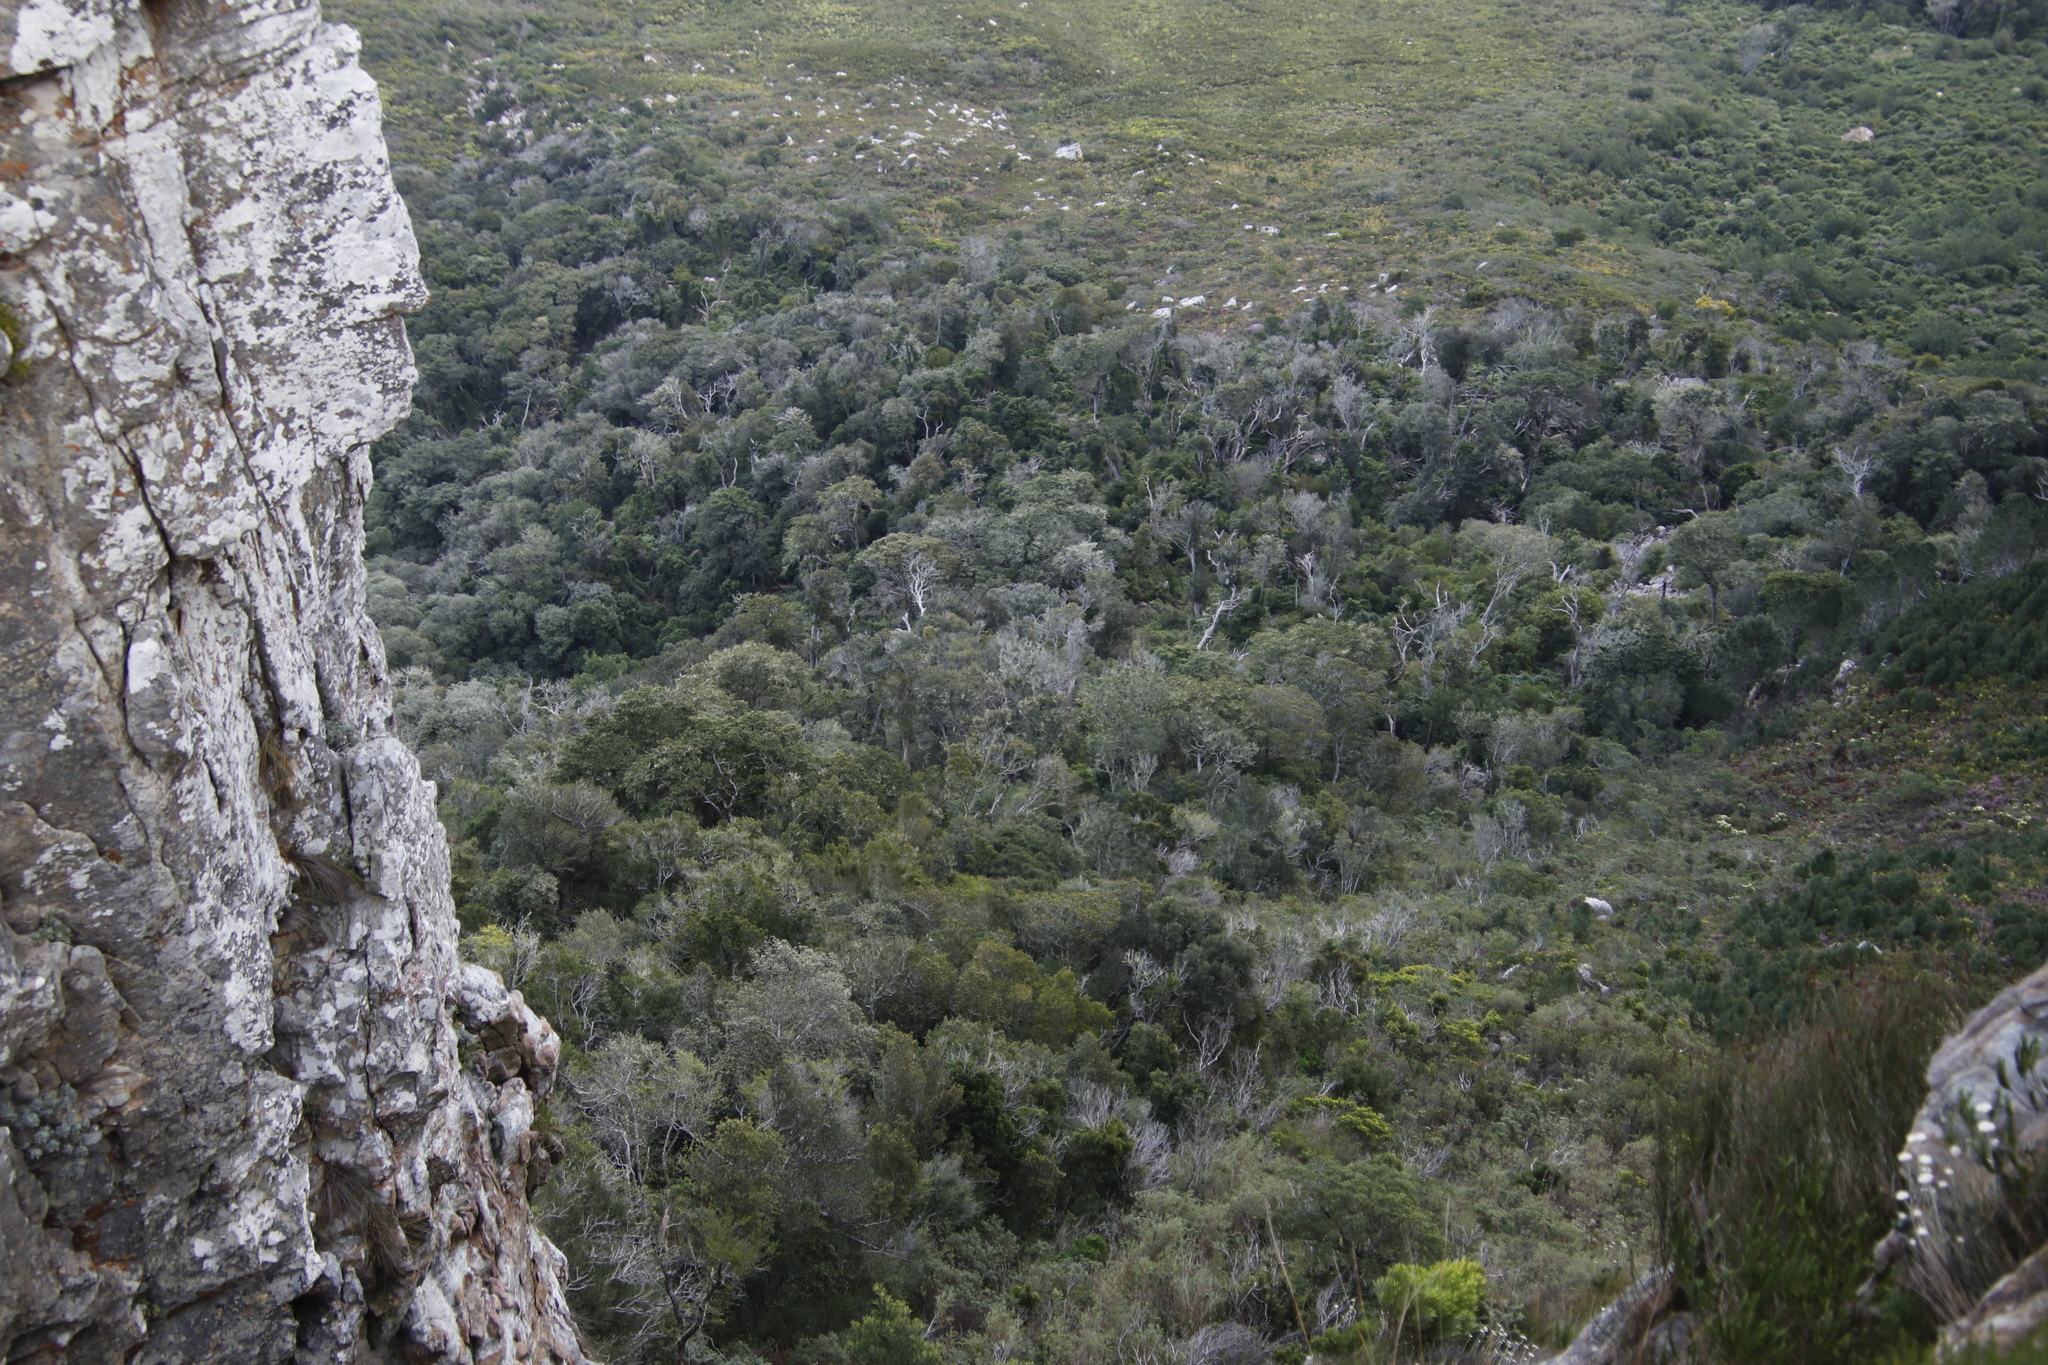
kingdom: Plantae
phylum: Tracheophyta
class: Pinopsida
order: Pinales
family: Podocarpaceae
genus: Podocarpus
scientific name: Podocarpus latifolius
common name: True yellowwood
